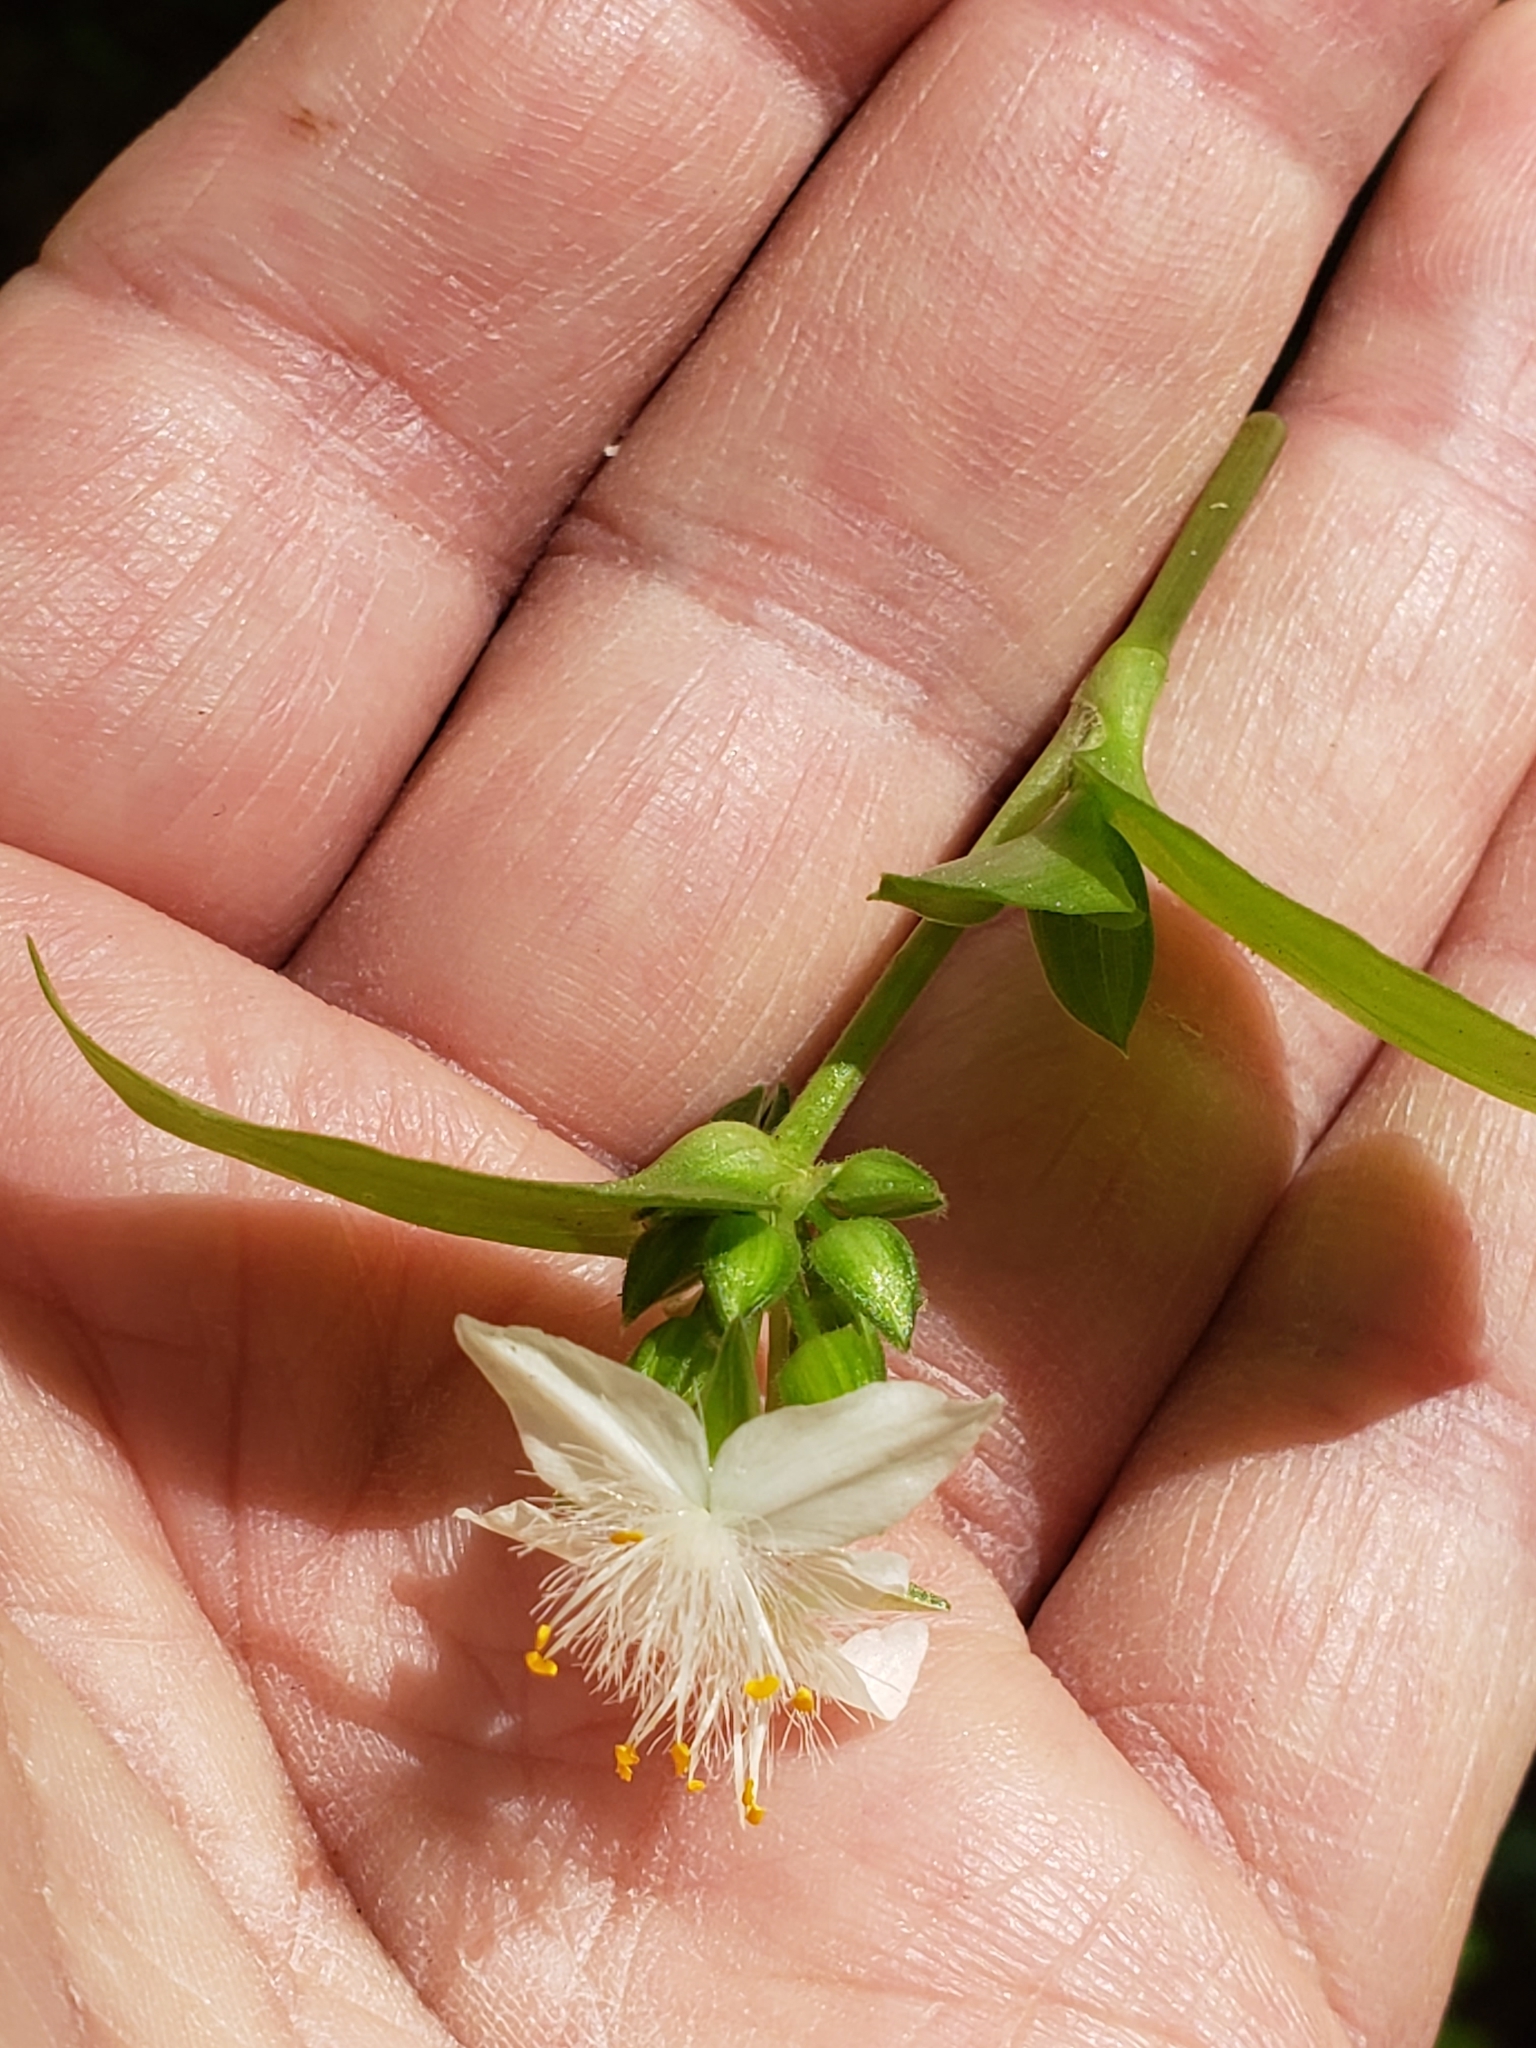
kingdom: Plantae
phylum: Tracheophyta
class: Liliopsida
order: Commelinales
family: Commelinaceae
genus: Tradescantia
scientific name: Tradescantia fluminensis
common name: Wandering-jew
